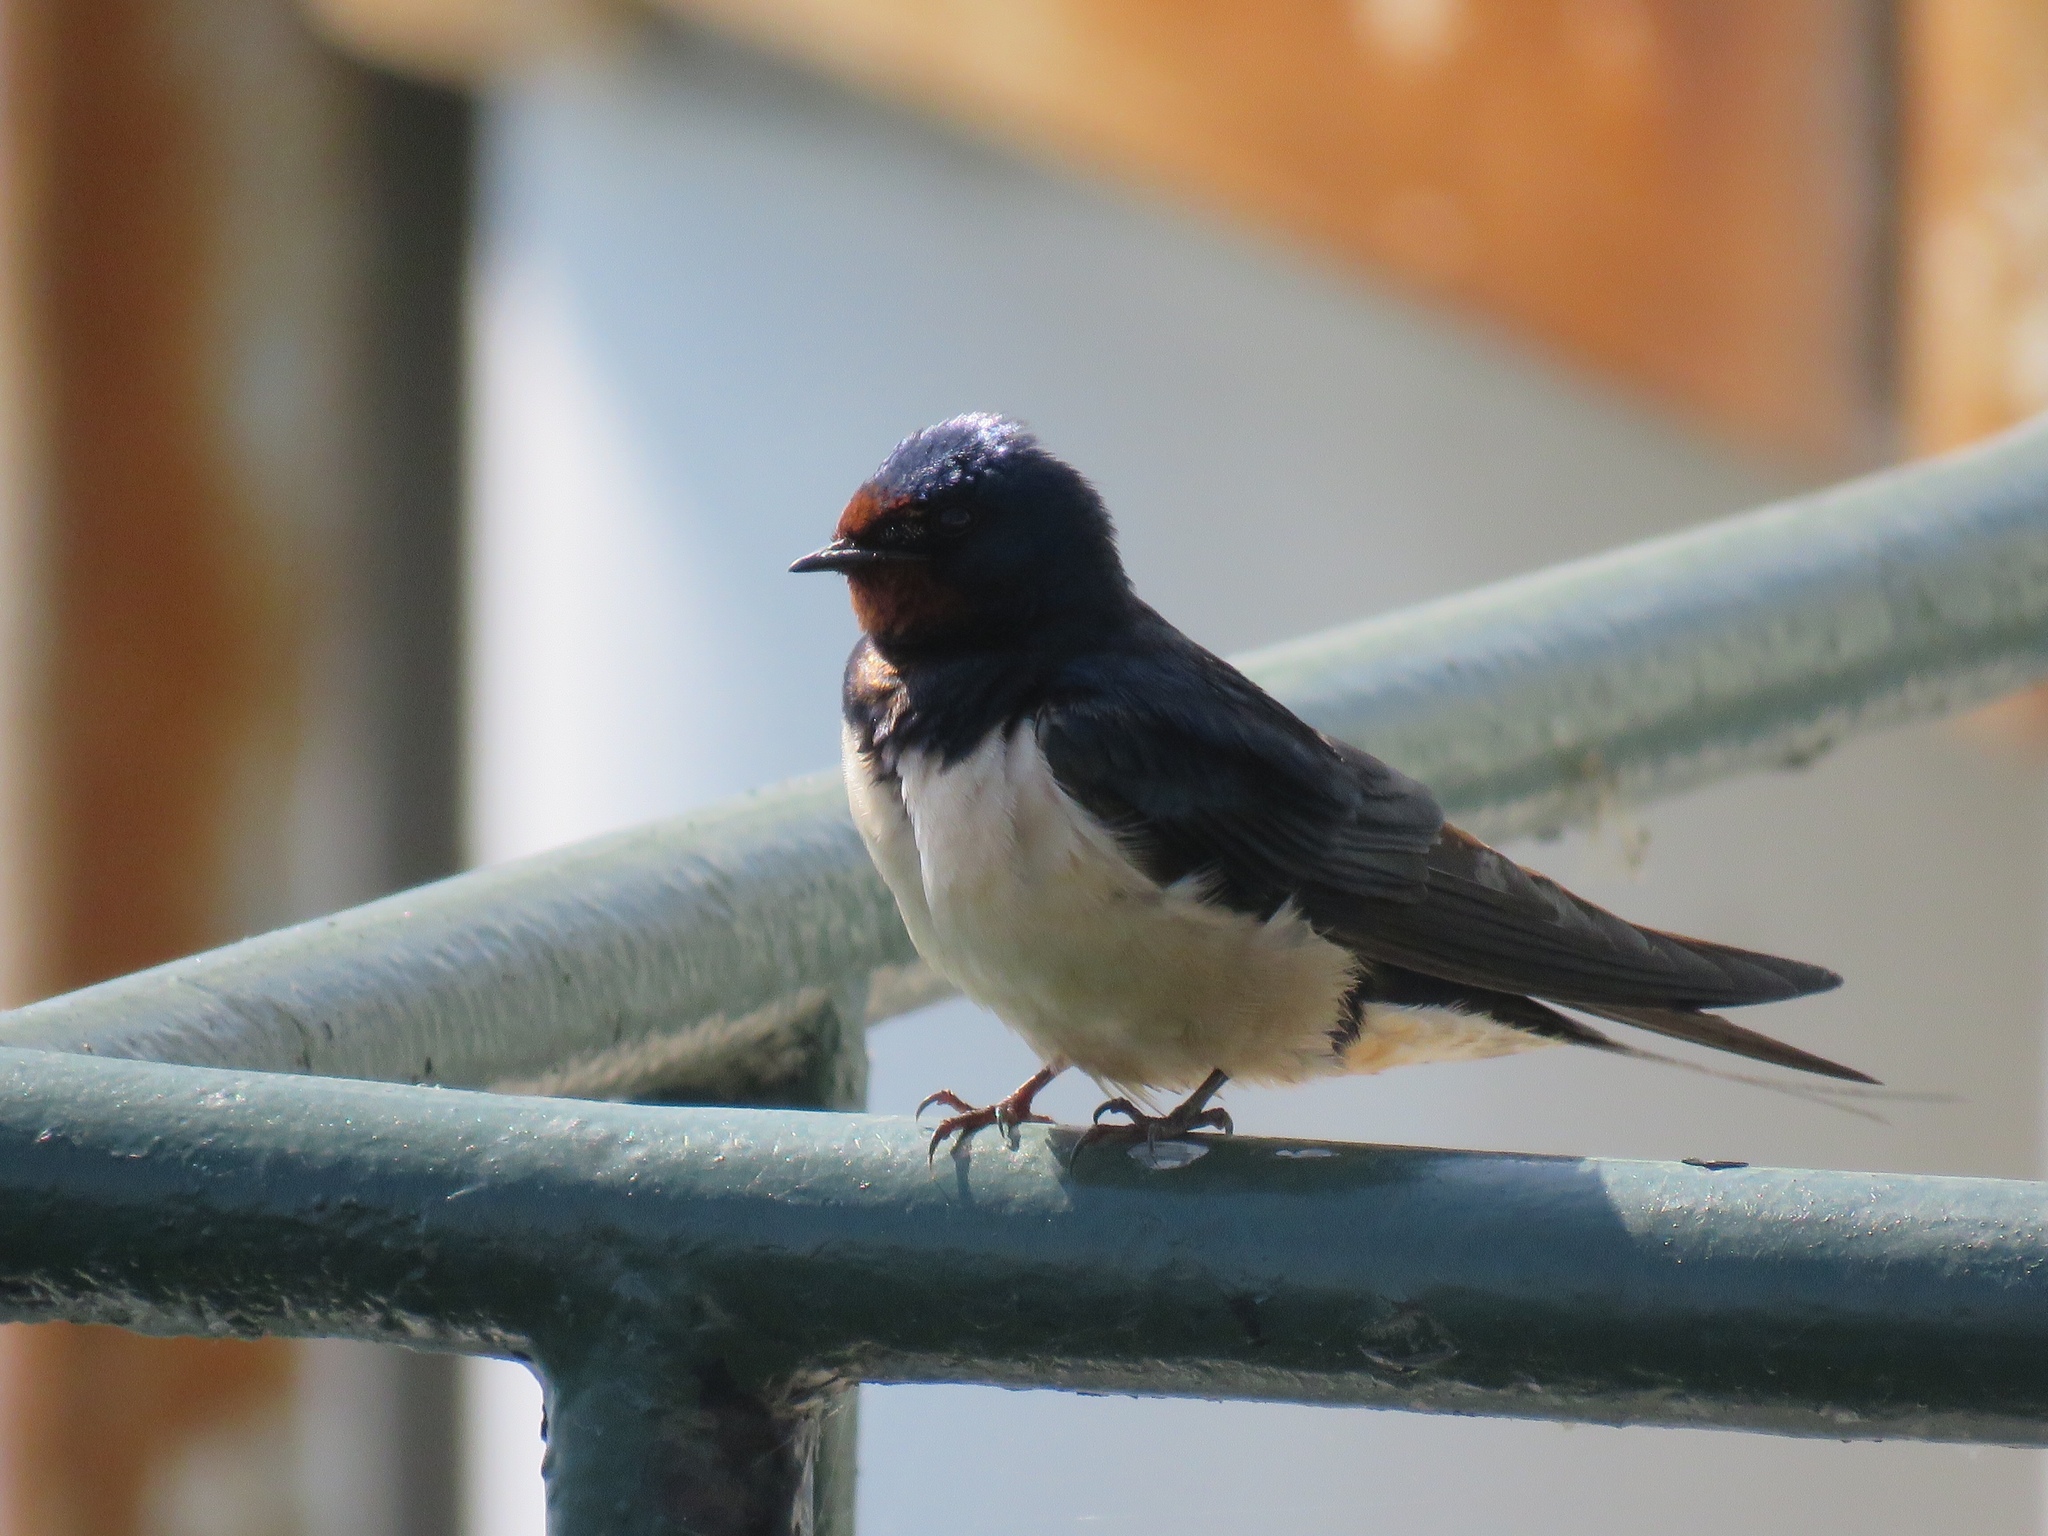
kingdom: Animalia
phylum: Chordata
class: Aves
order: Passeriformes
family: Hirundinidae
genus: Hirundo
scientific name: Hirundo rustica
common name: Barn swallow
